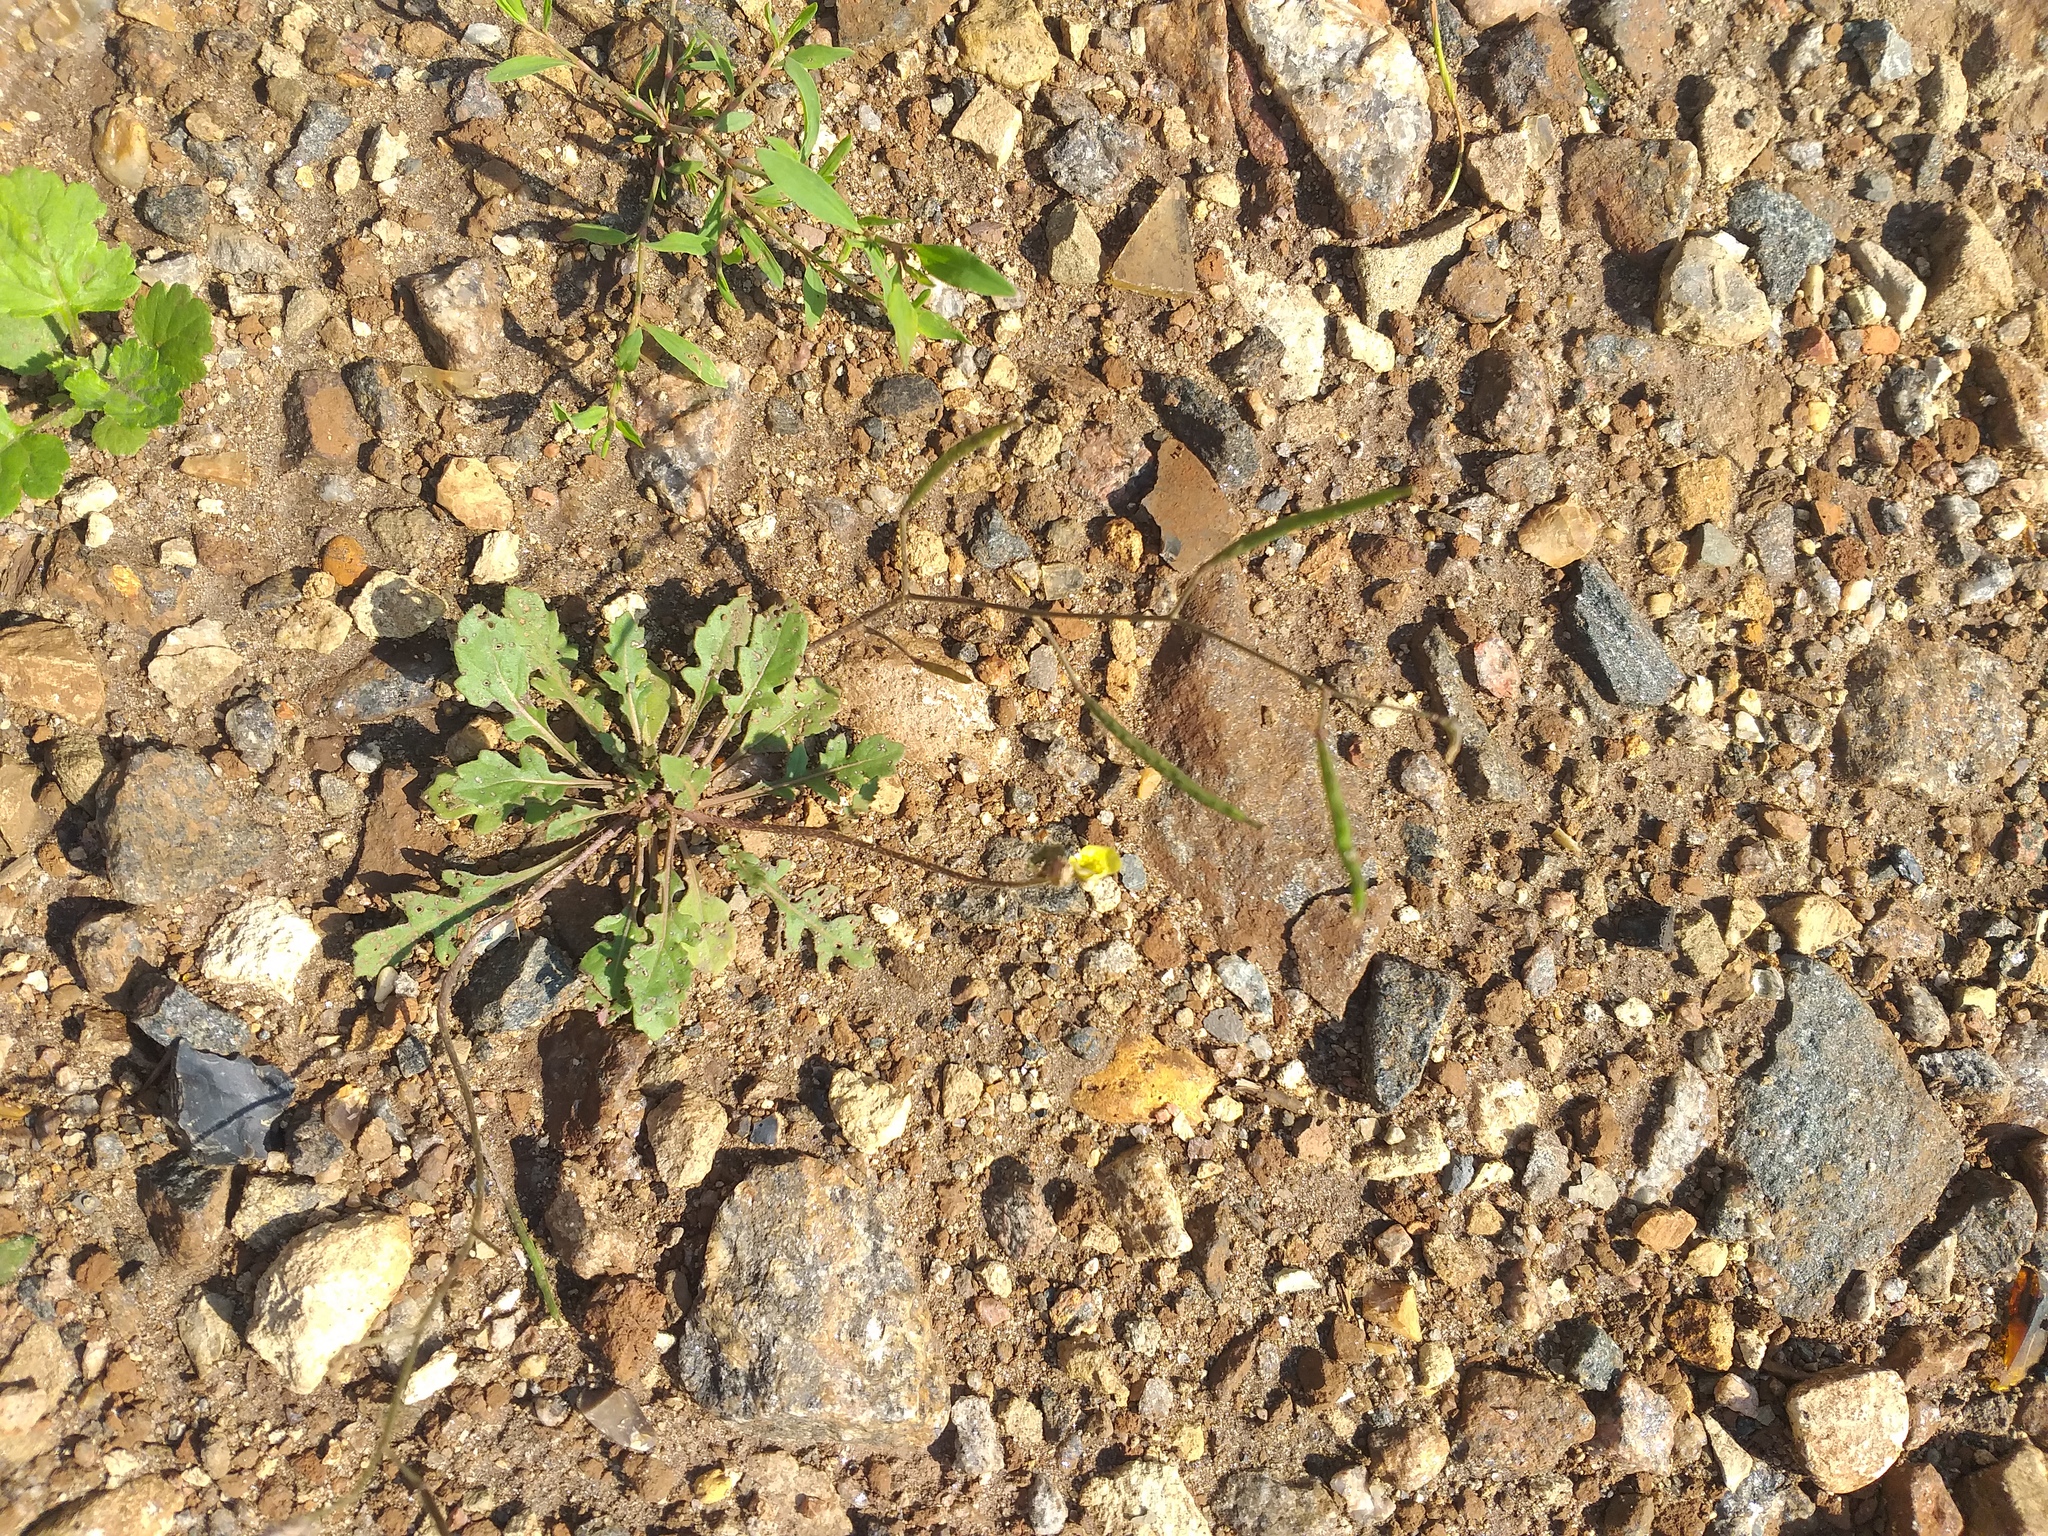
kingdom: Plantae
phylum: Tracheophyta
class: Magnoliopsida
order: Brassicales
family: Brassicaceae
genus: Diplotaxis
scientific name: Diplotaxis muralis
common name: Annual wall-rocket
